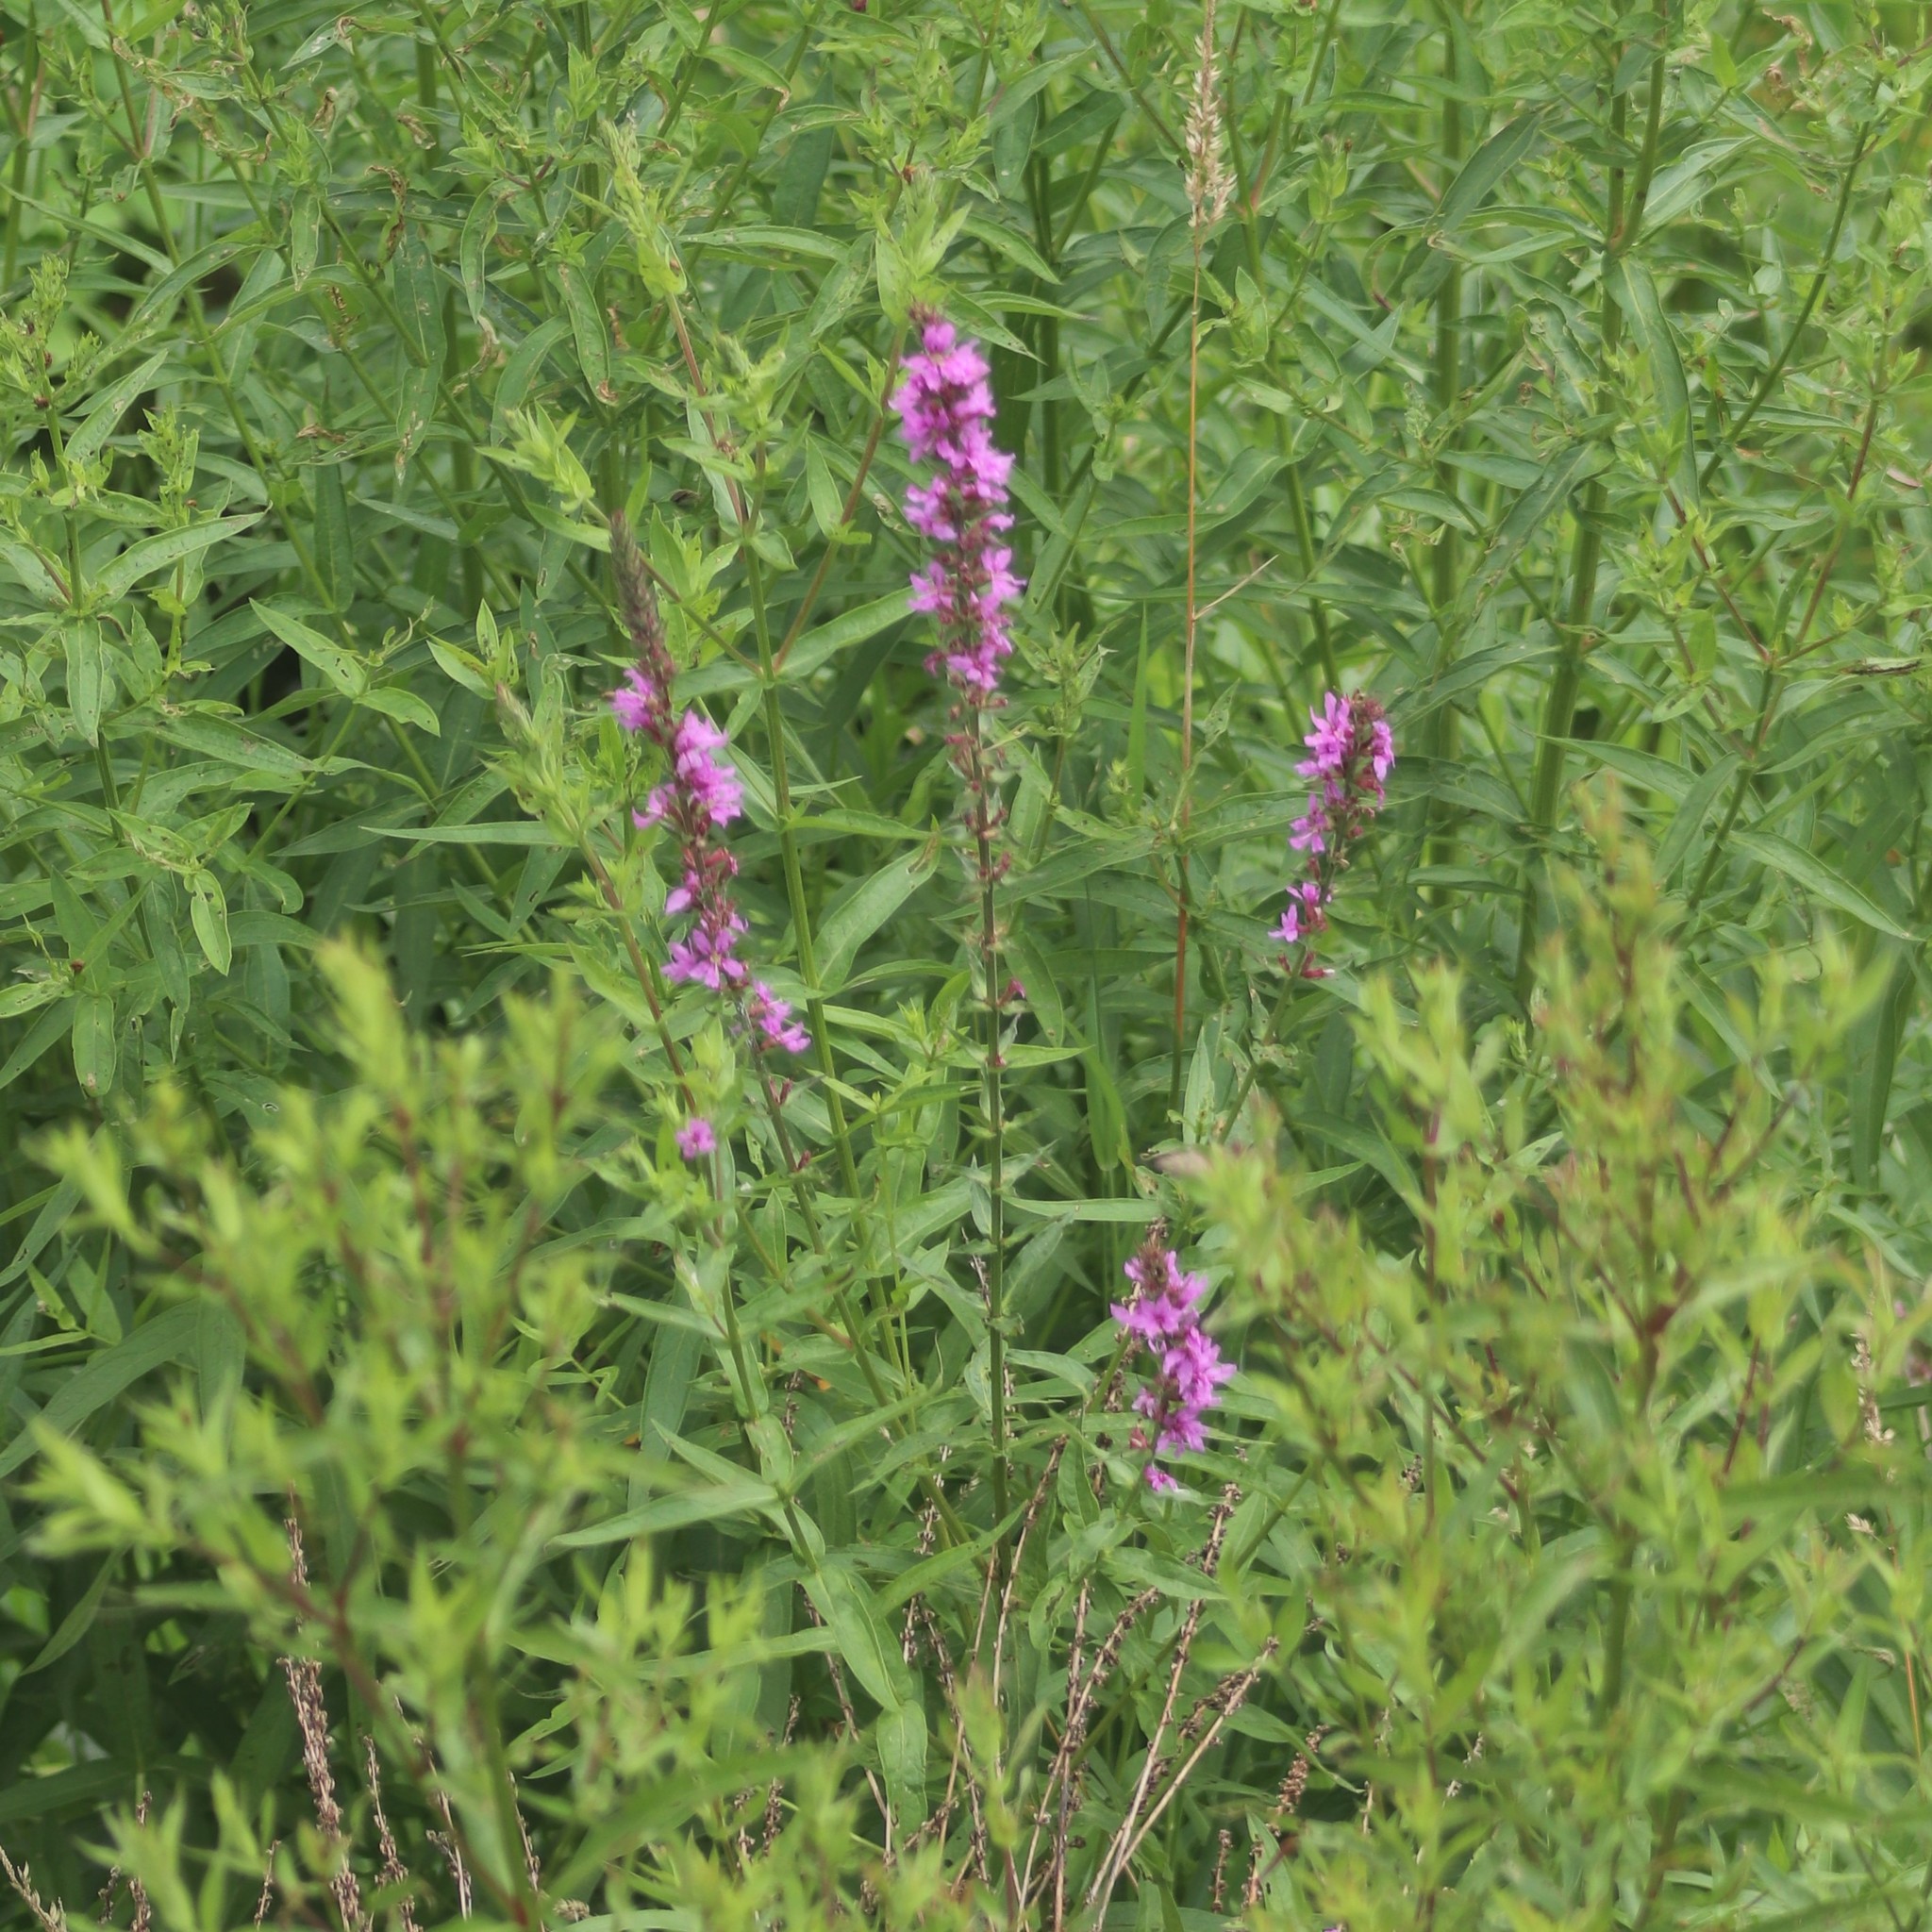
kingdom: Plantae
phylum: Tracheophyta
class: Magnoliopsida
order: Myrtales
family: Lythraceae
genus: Lythrum
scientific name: Lythrum salicaria
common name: Purple loosestrife
